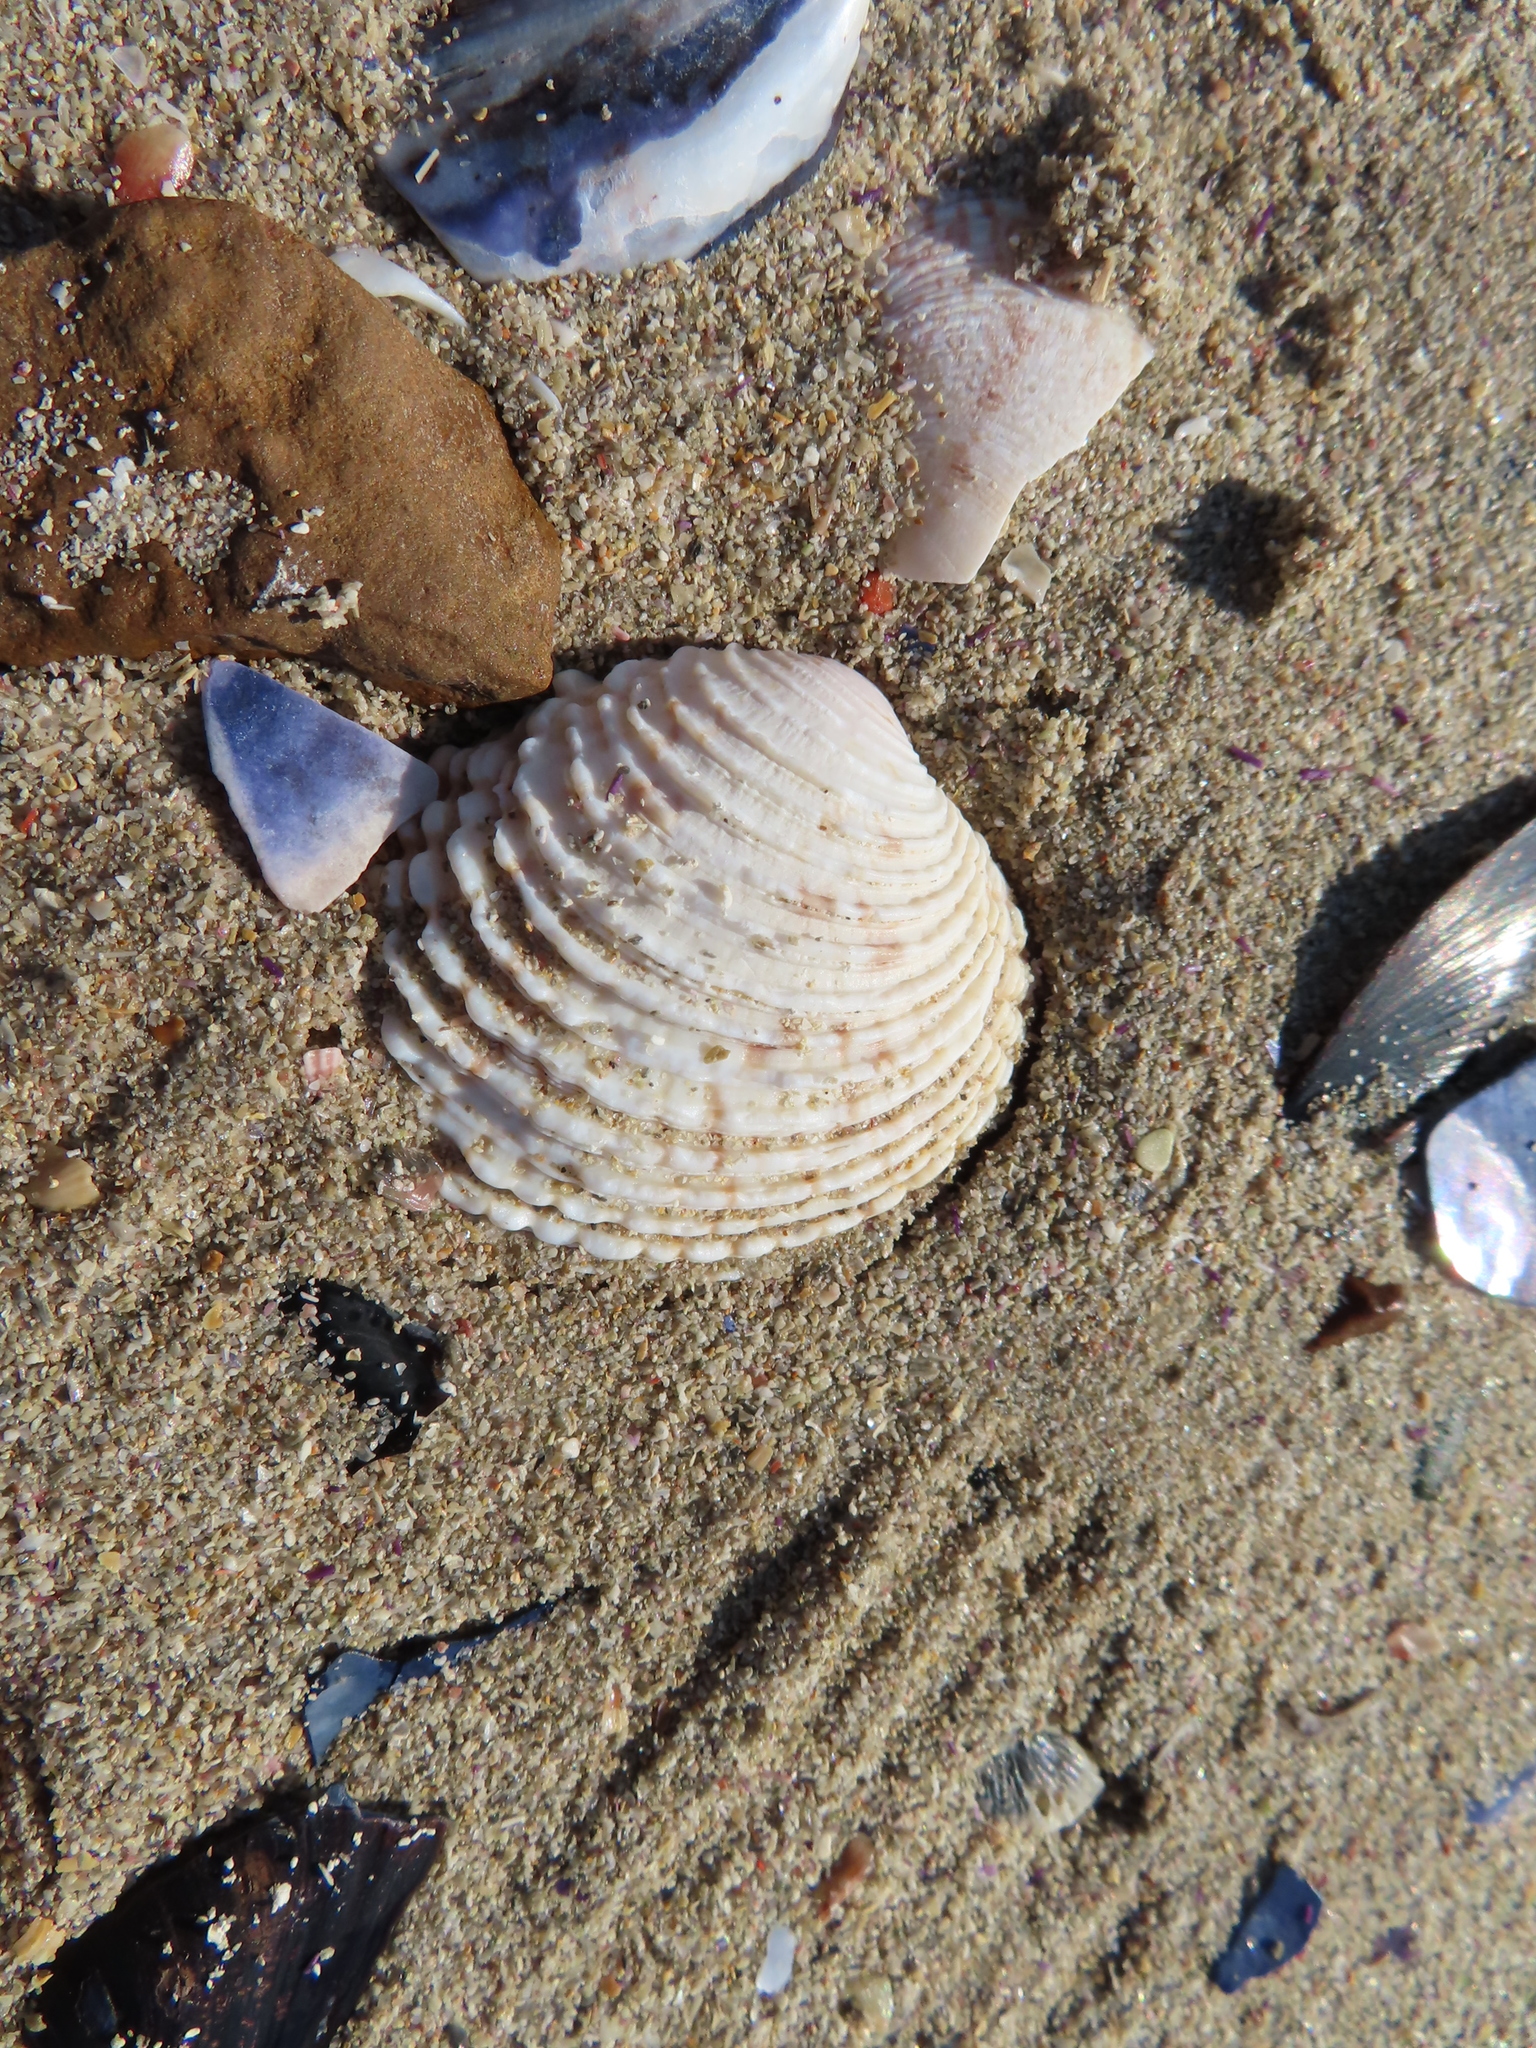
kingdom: Animalia
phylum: Mollusca
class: Bivalvia
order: Venerida
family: Veneridae
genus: Venus
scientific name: Venus verrucosa
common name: Warty venus
